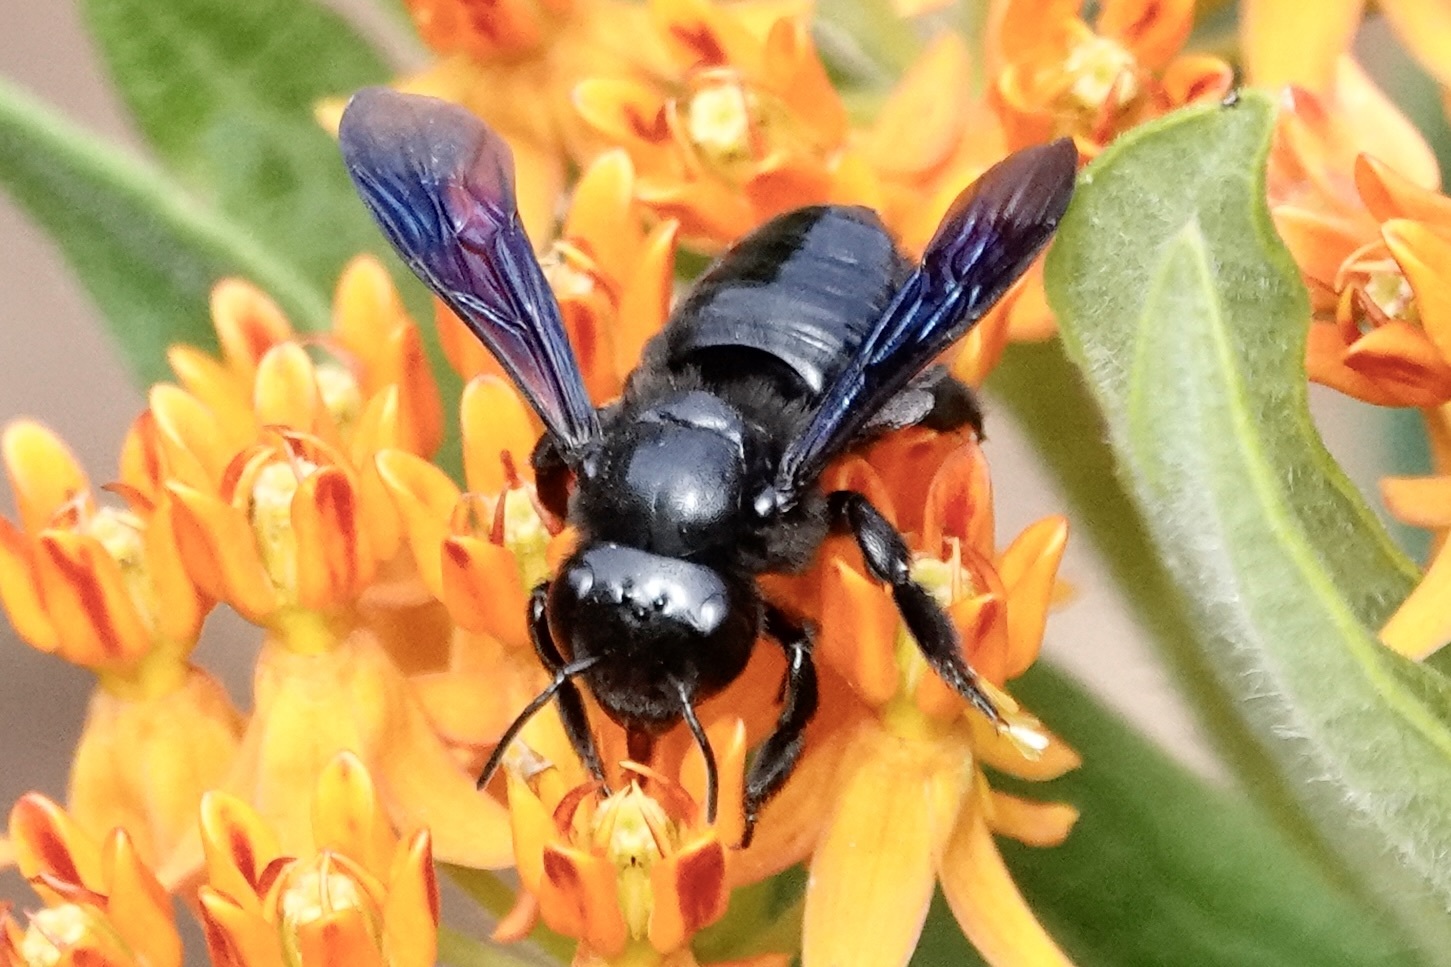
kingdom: Animalia
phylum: Arthropoda
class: Insecta
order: Hymenoptera
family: Megachilidae
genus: Megachile
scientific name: Megachile xylocopoides
